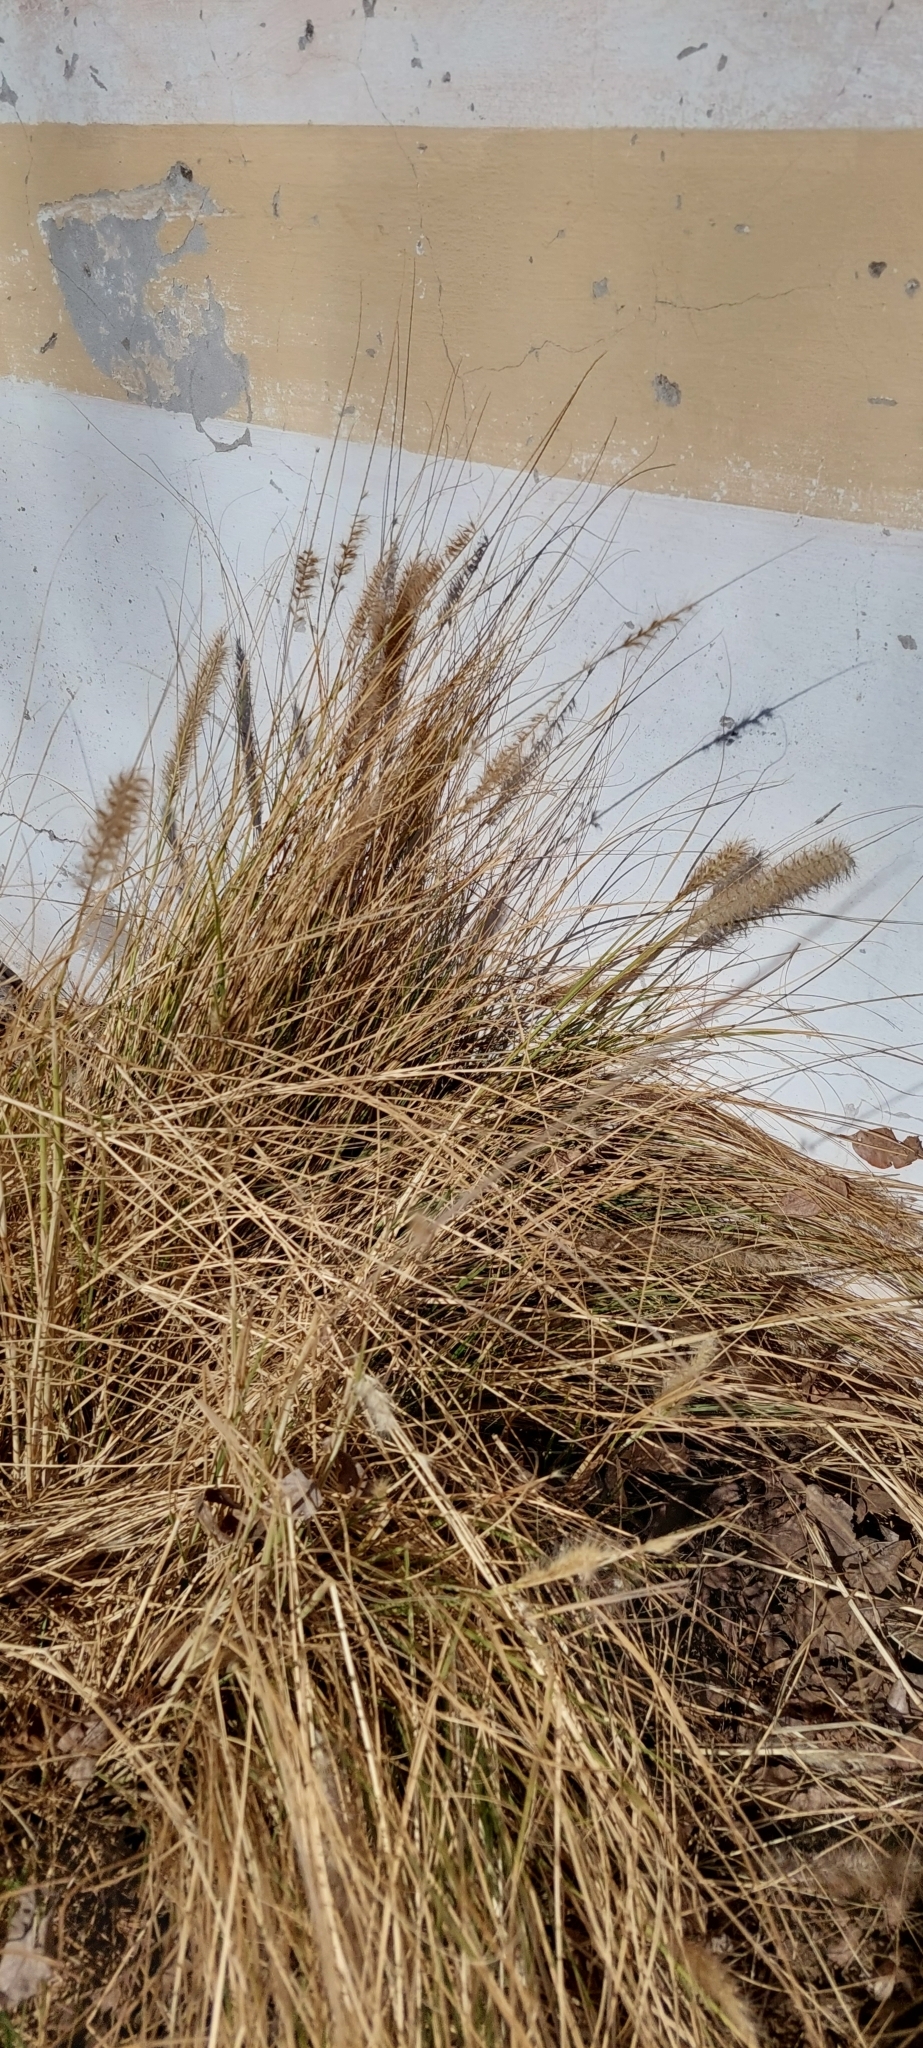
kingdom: Plantae
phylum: Tracheophyta
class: Liliopsida
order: Poales
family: Poaceae
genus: Cenchrus
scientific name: Cenchrus setaceus
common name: Crimson fountaingrass
